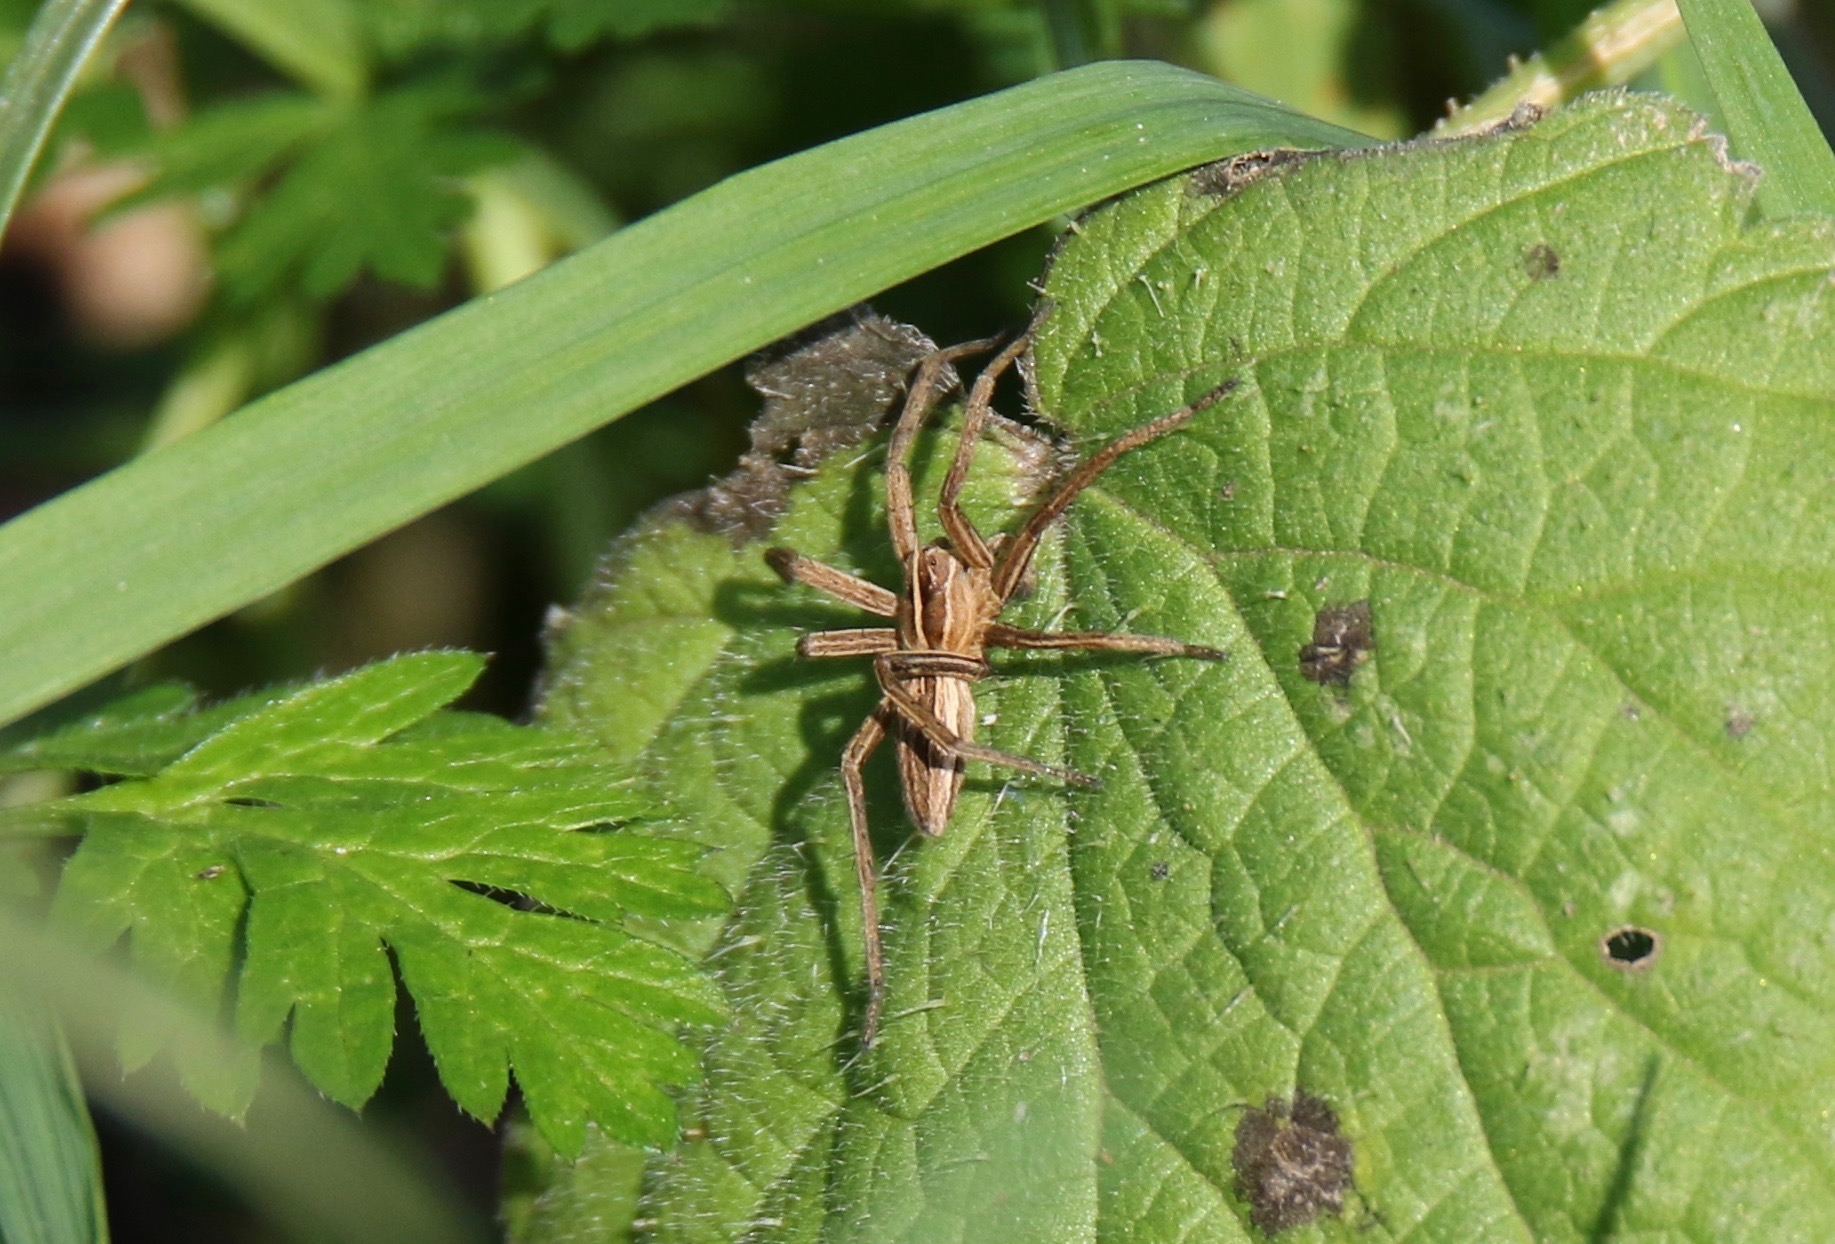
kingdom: Animalia
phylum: Arthropoda
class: Arachnida
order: Araneae
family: Pisauridae
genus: Pisaura
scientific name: Pisaura mirabilis
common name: Tent spider
